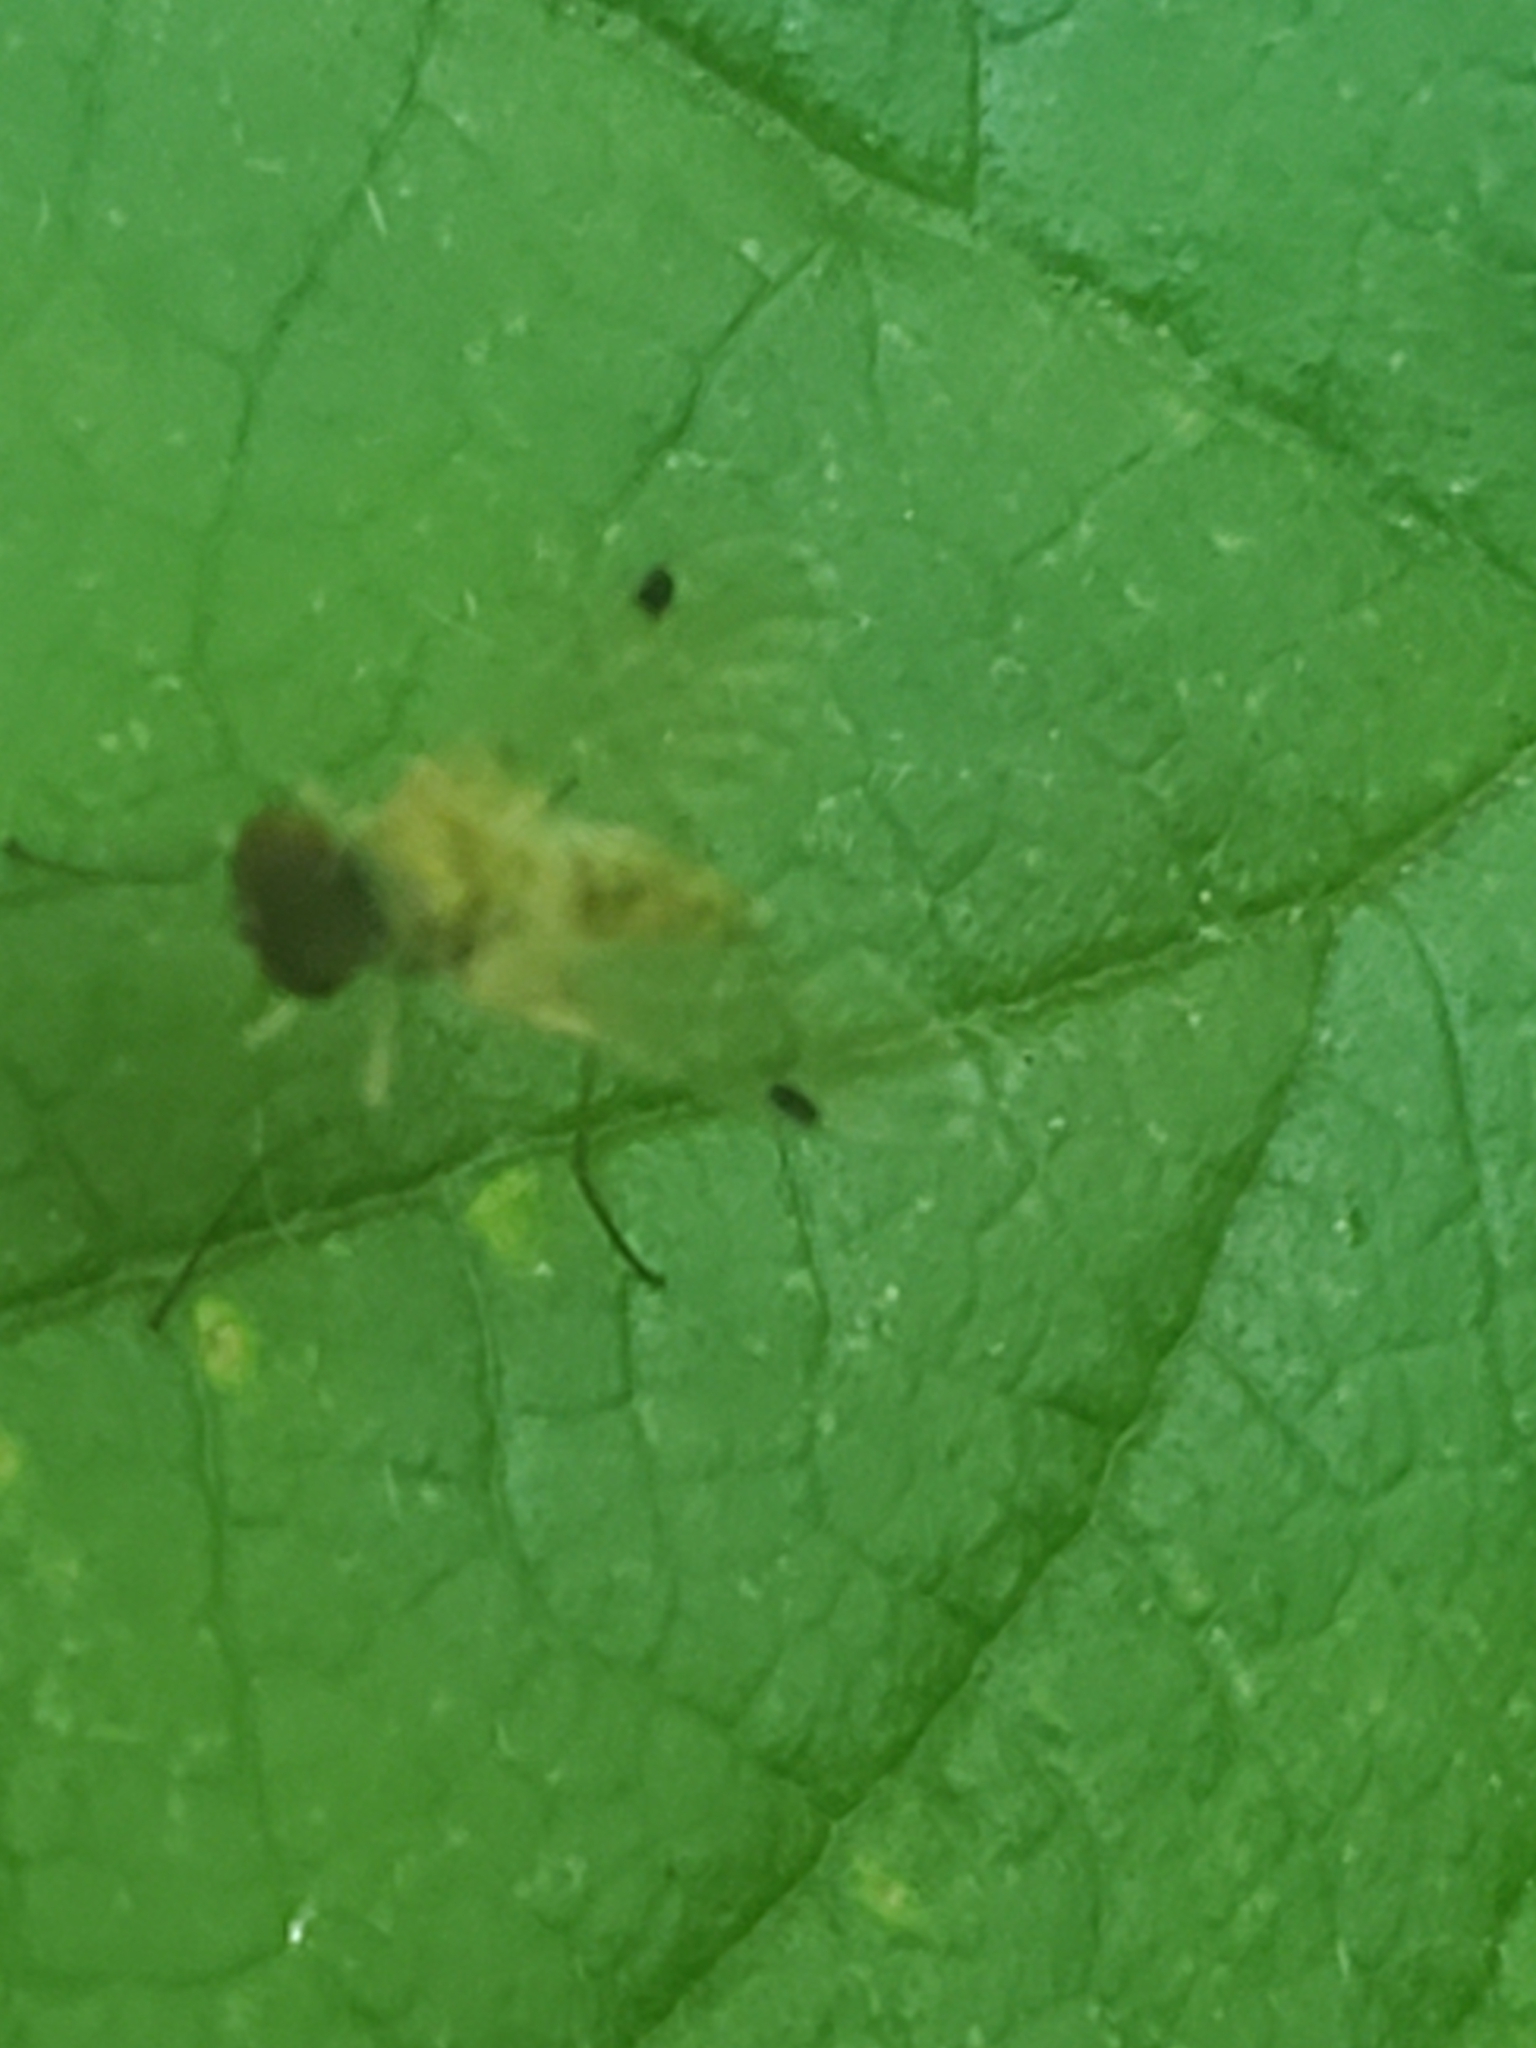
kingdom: Animalia
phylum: Arthropoda
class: Insecta
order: Diptera
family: Rhagionidae
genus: Chrysopilus
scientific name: Chrysopilus modestus
